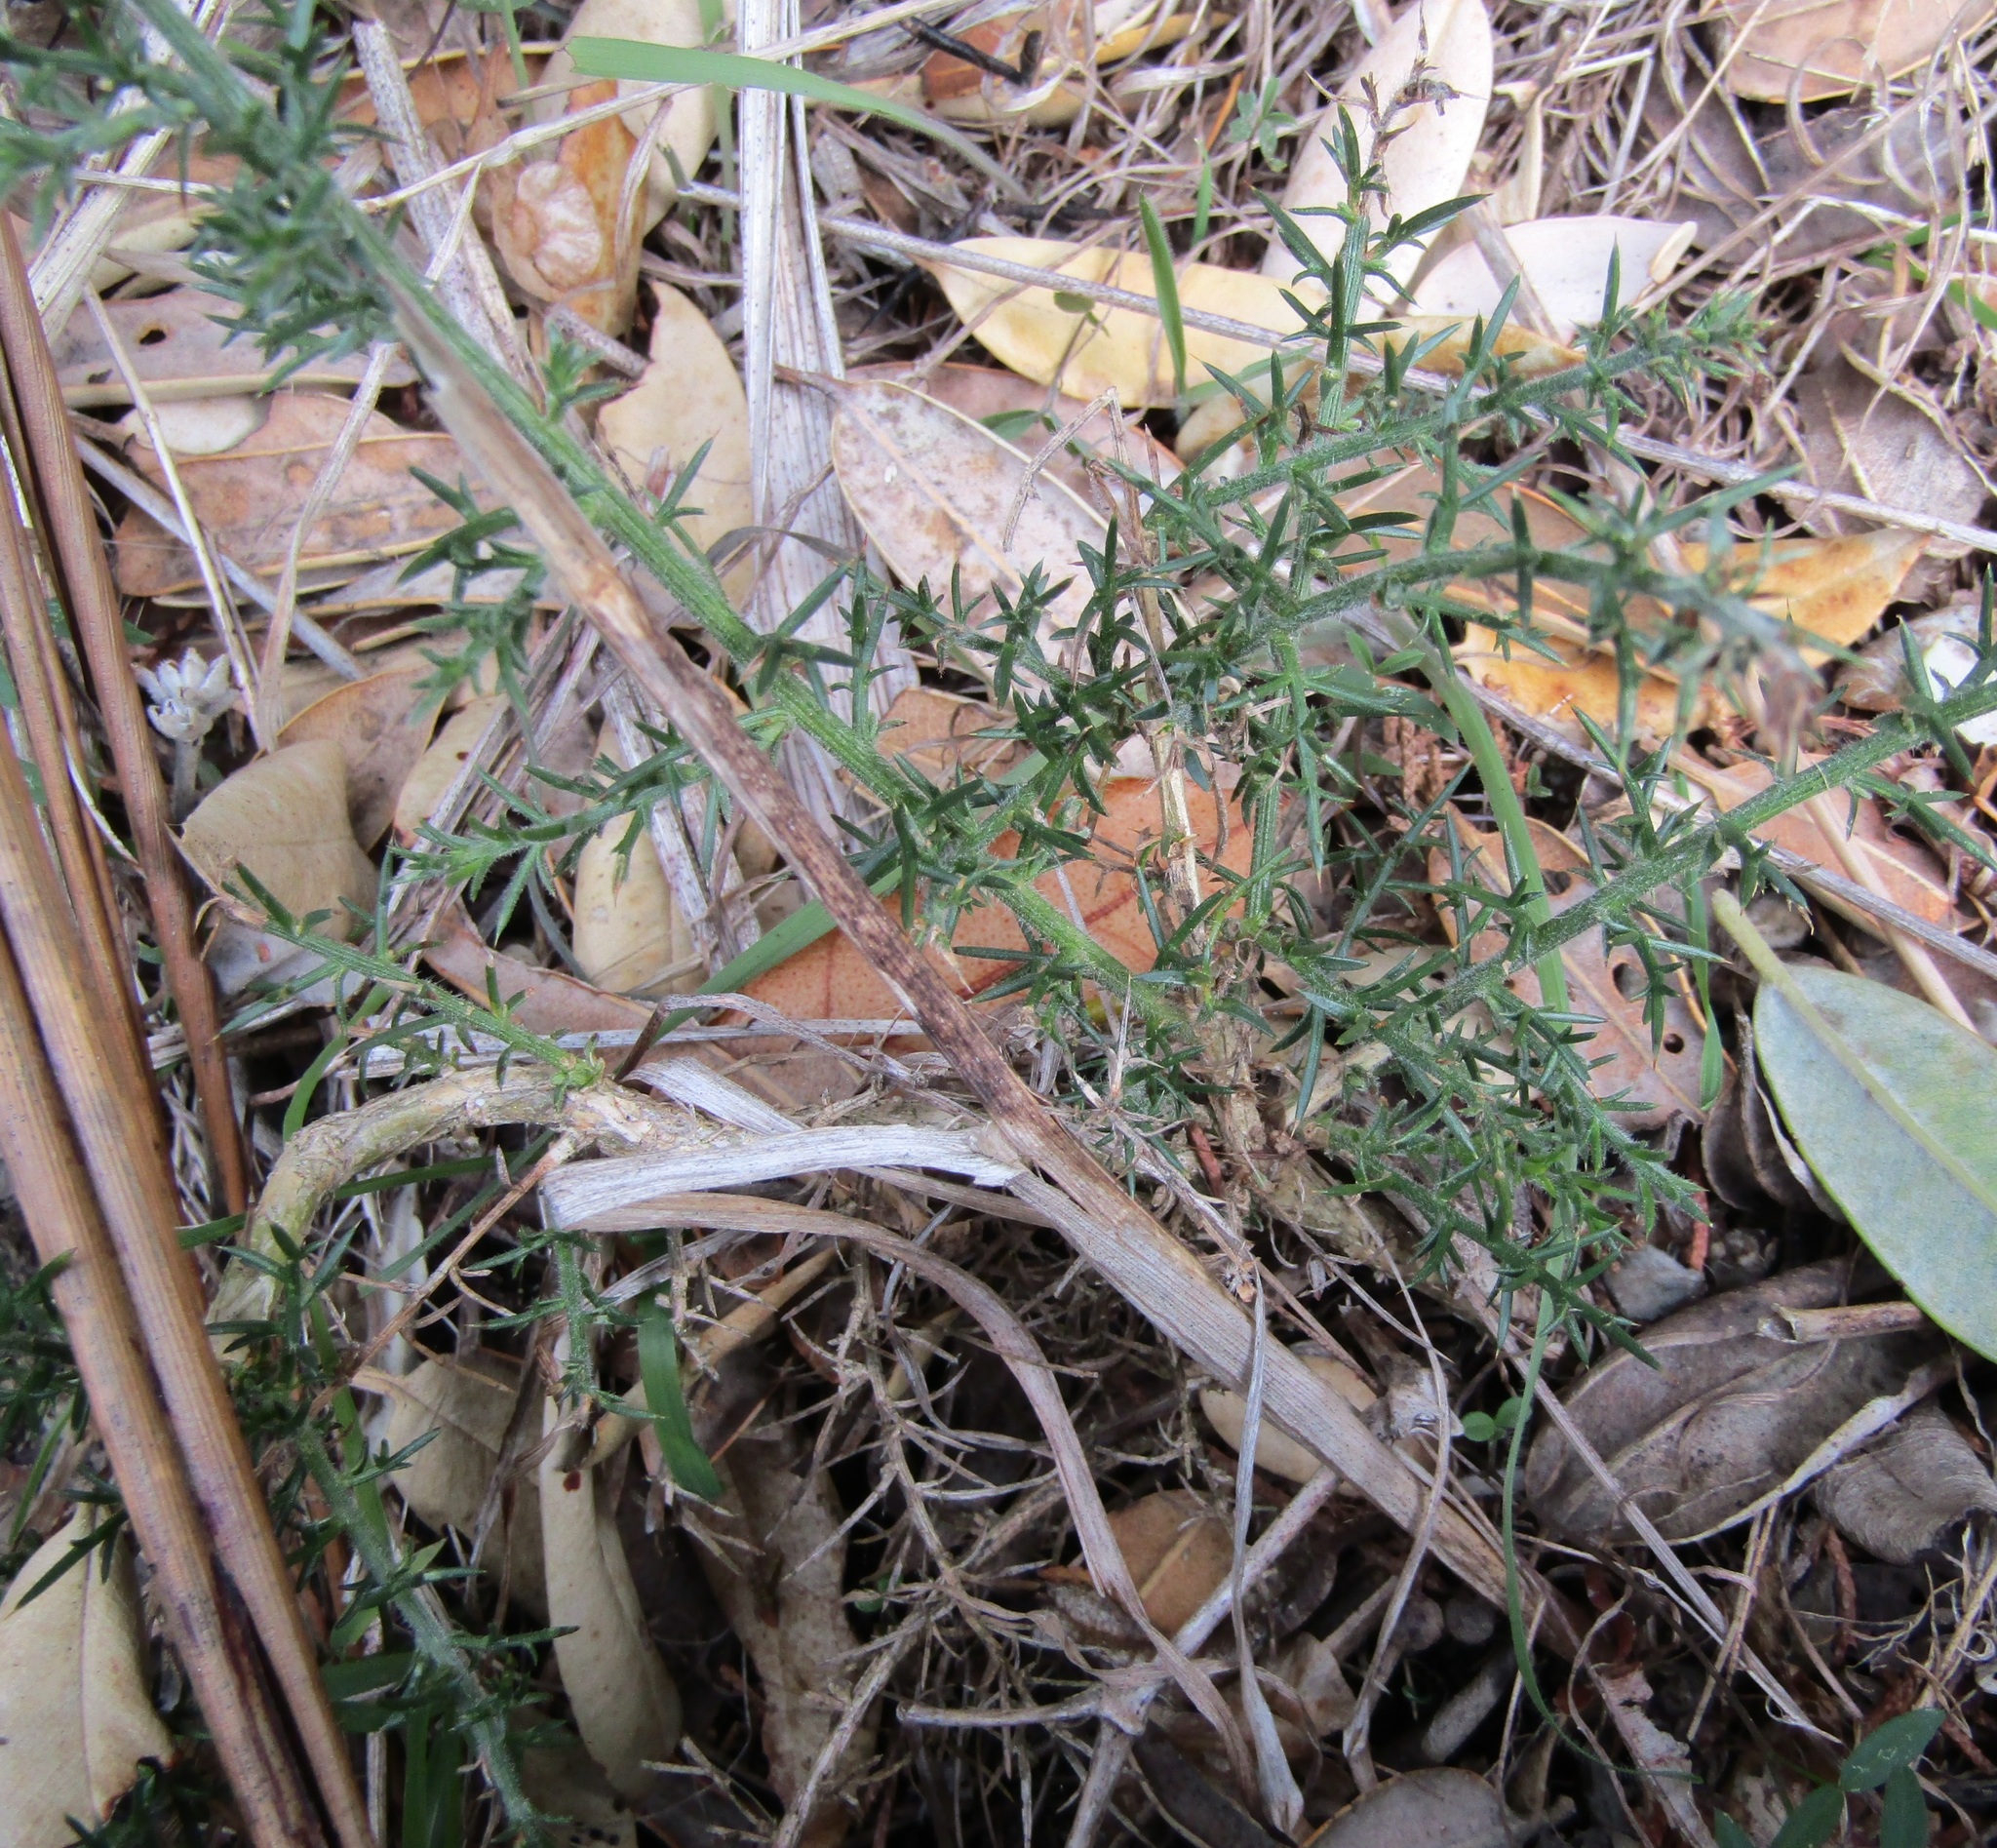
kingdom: Plantae
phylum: Tracheophyta
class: Magnoliopsida
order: Fabales
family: Fabaceae
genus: Ulex
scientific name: Ulex europaeus
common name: Common gorse
